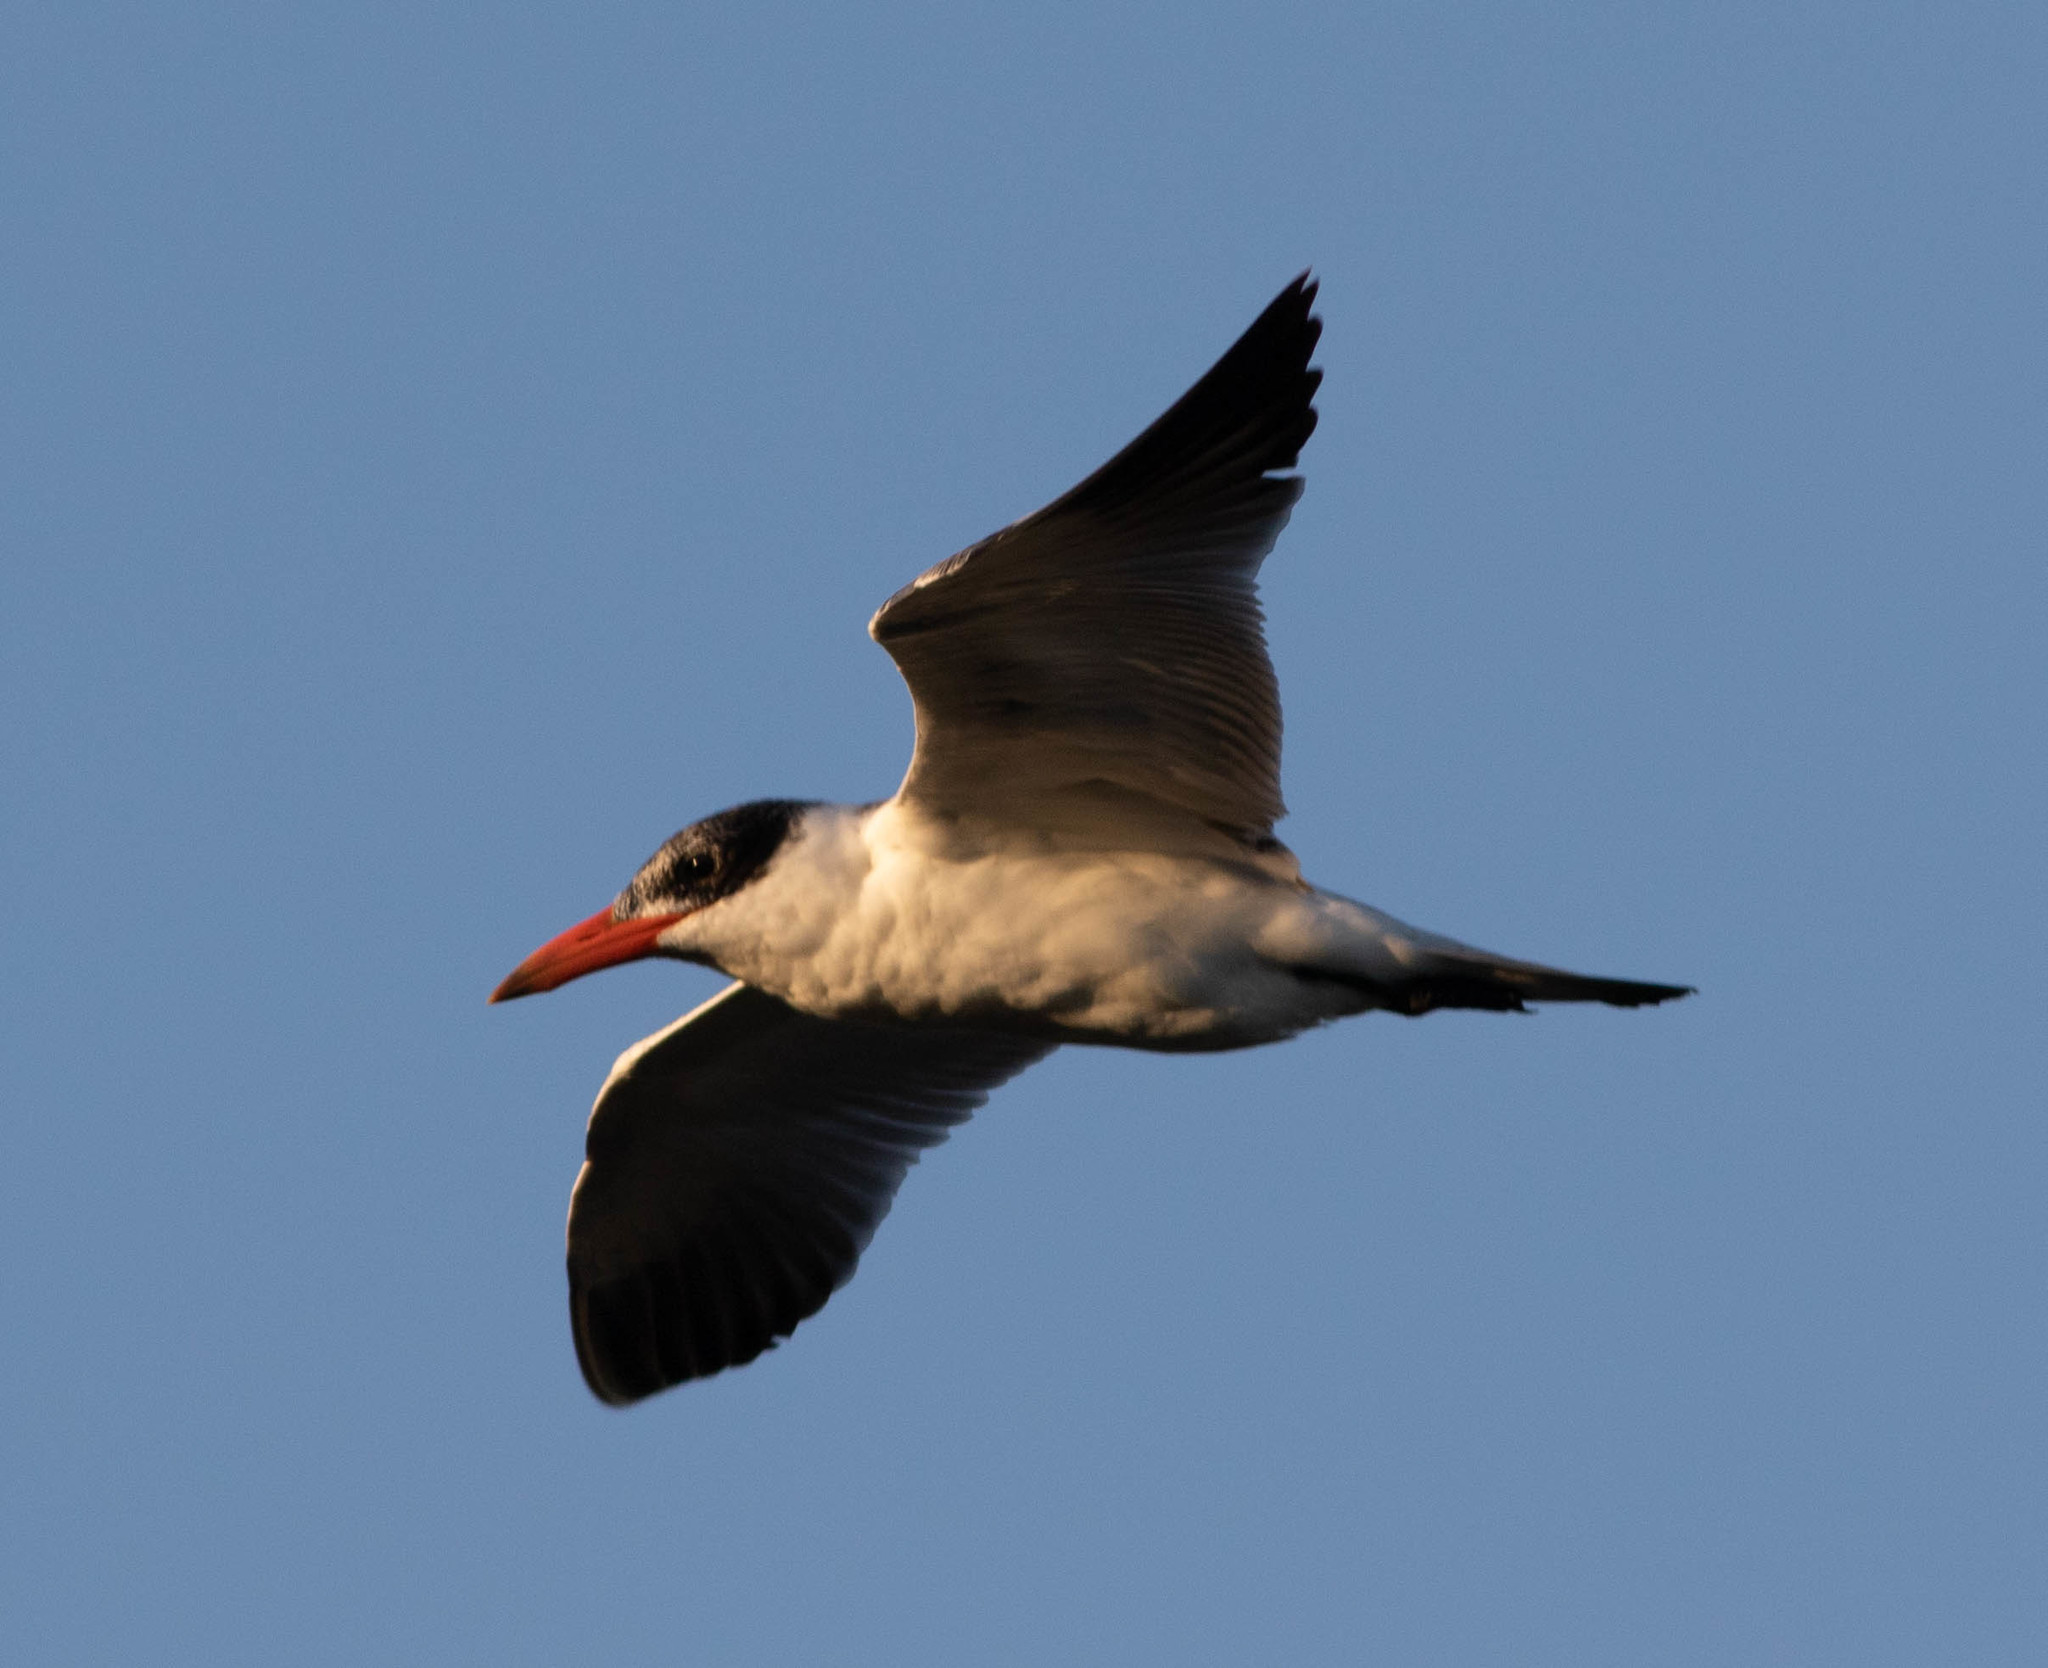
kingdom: Animalia
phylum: Chordata
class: Aves
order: Charadriiformes
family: Laridae
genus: Hydroprogne
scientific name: Hydroprogne caspia
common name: Caspian tern
